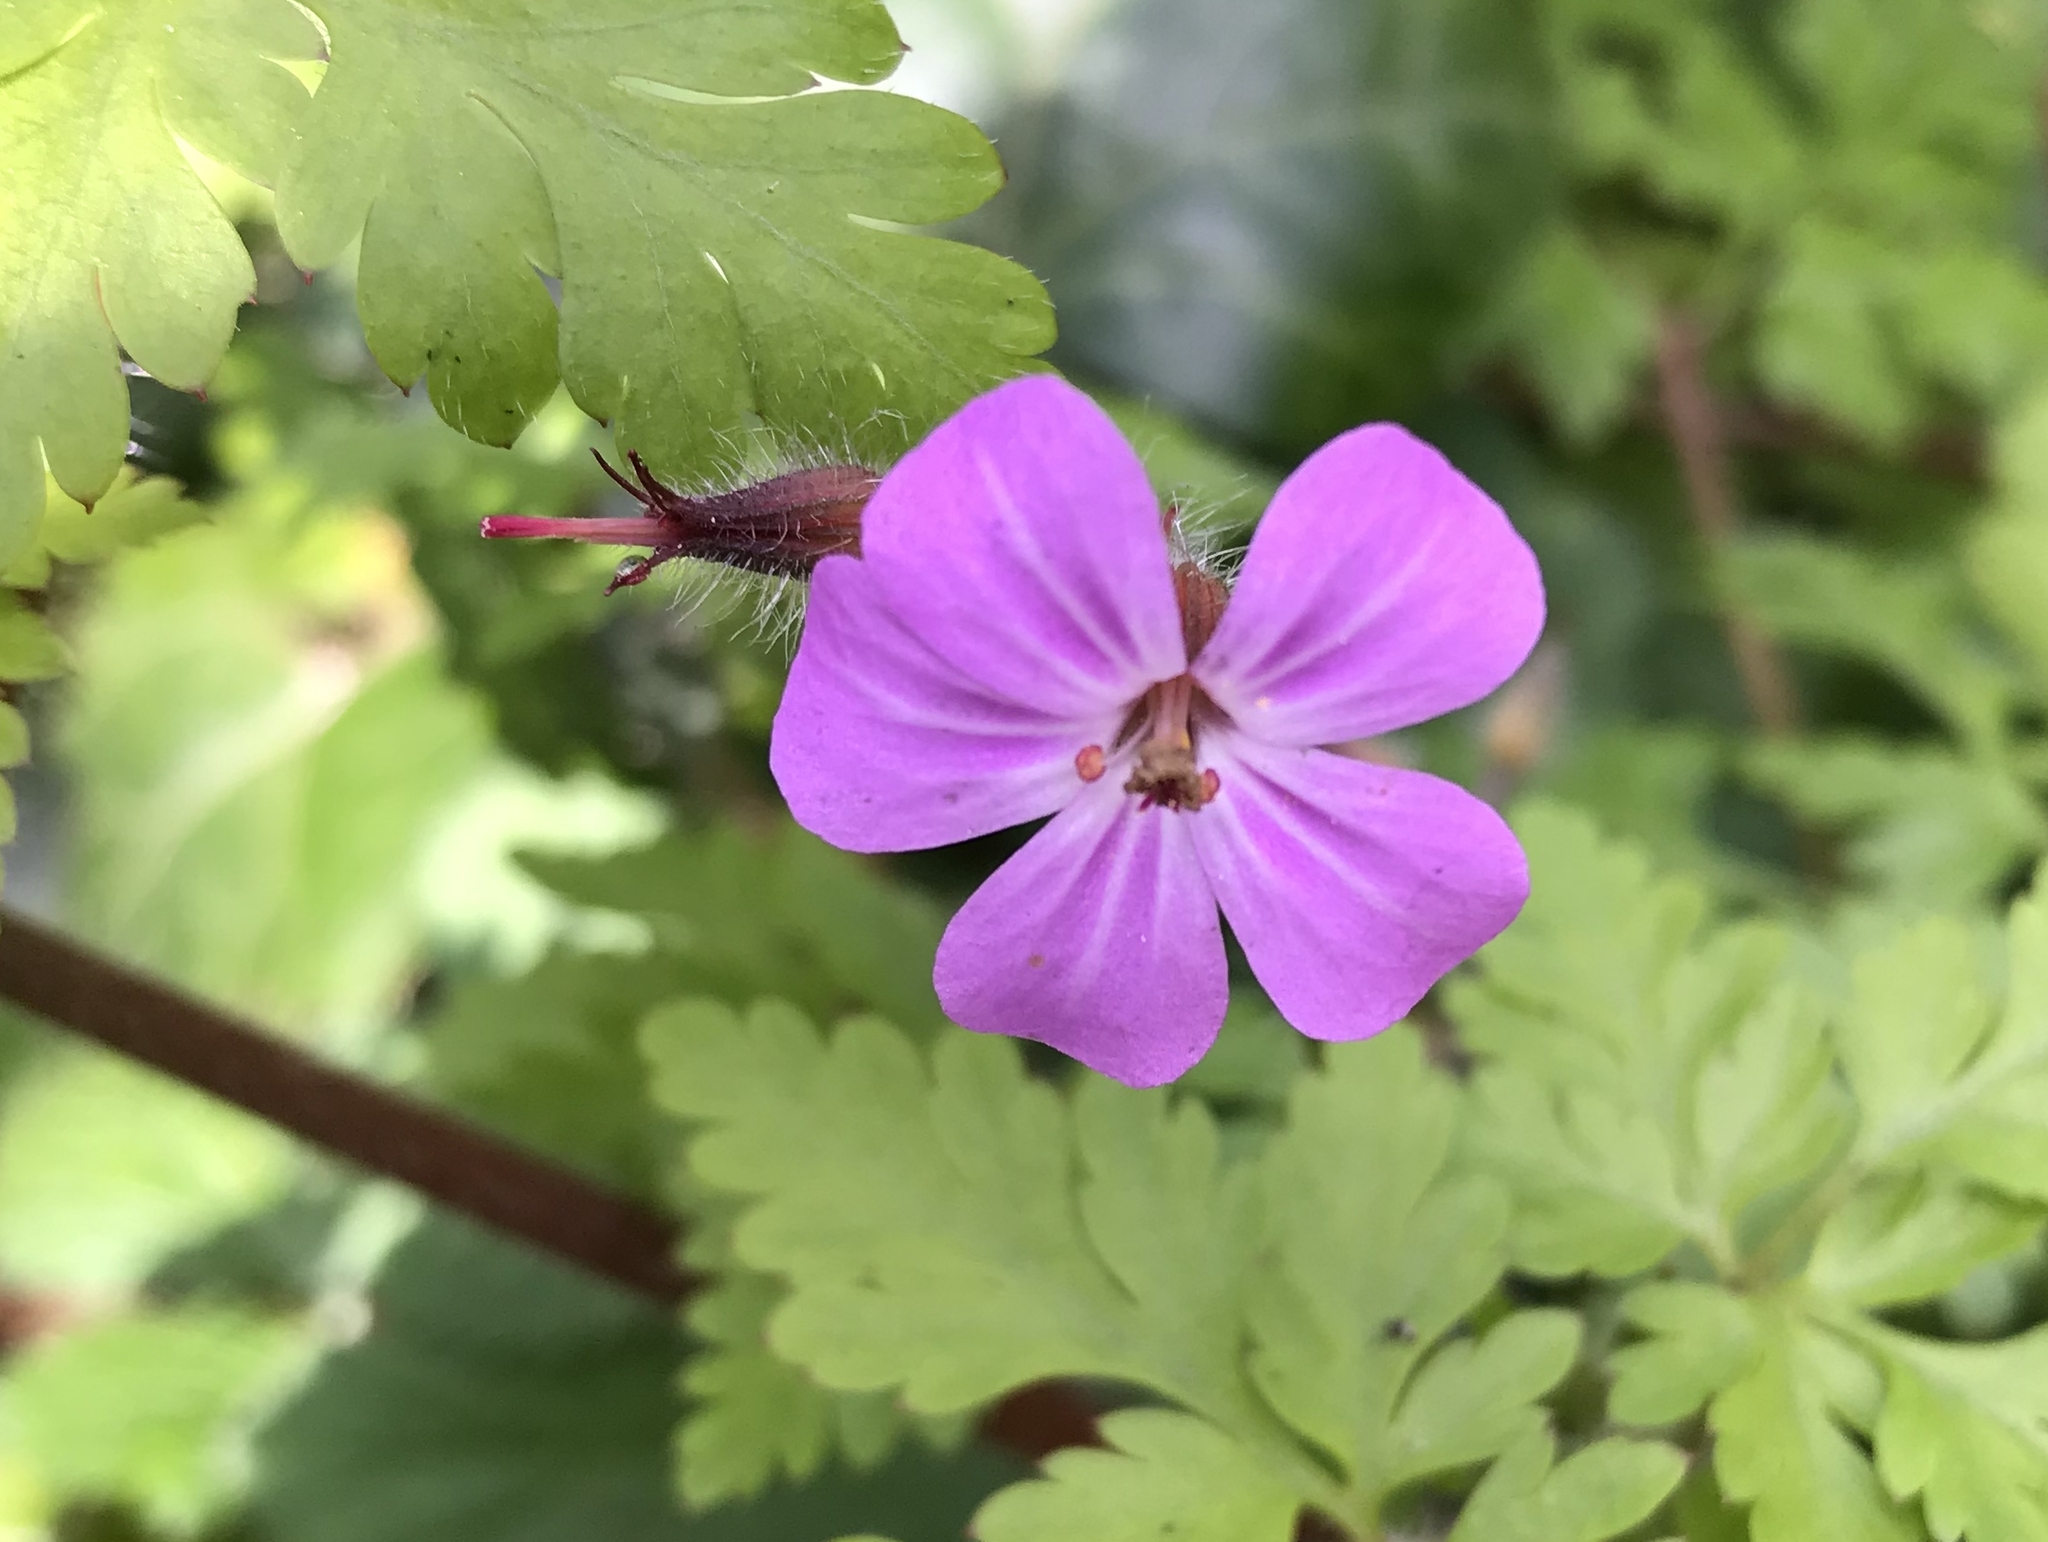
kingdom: Plantae
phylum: Tracheophyta
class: Magnoliopsida
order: Geraniales
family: Geraniaceae
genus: Geranium
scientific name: Geranium robertianum
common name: Herb-robert
